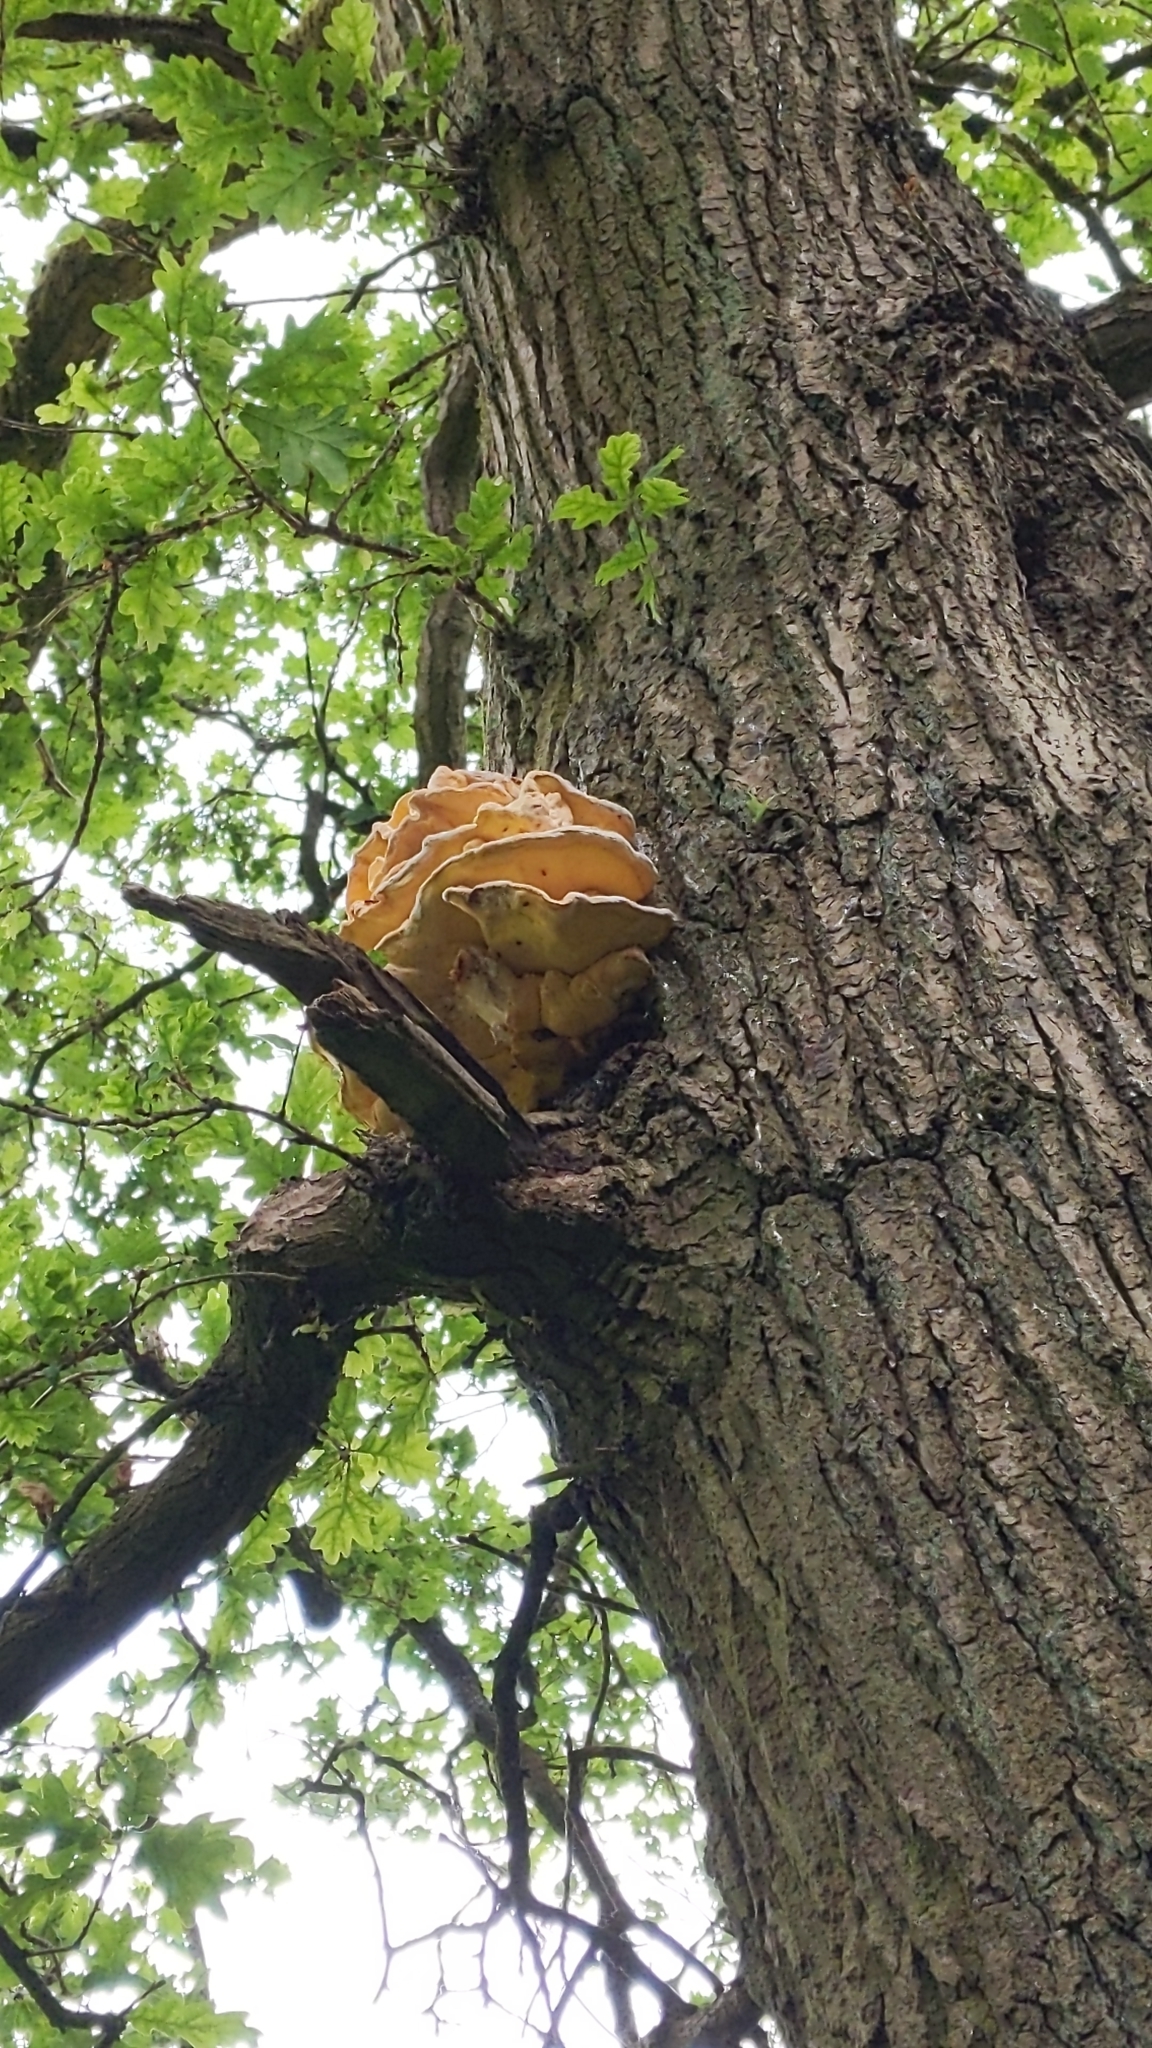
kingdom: Fungi
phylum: Basidiomycota
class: Agaricomycetes
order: Polyporales
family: Laetiporaceae
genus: Laetiporus
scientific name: Laetiporus sulphureus
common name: Chicken of the woods
